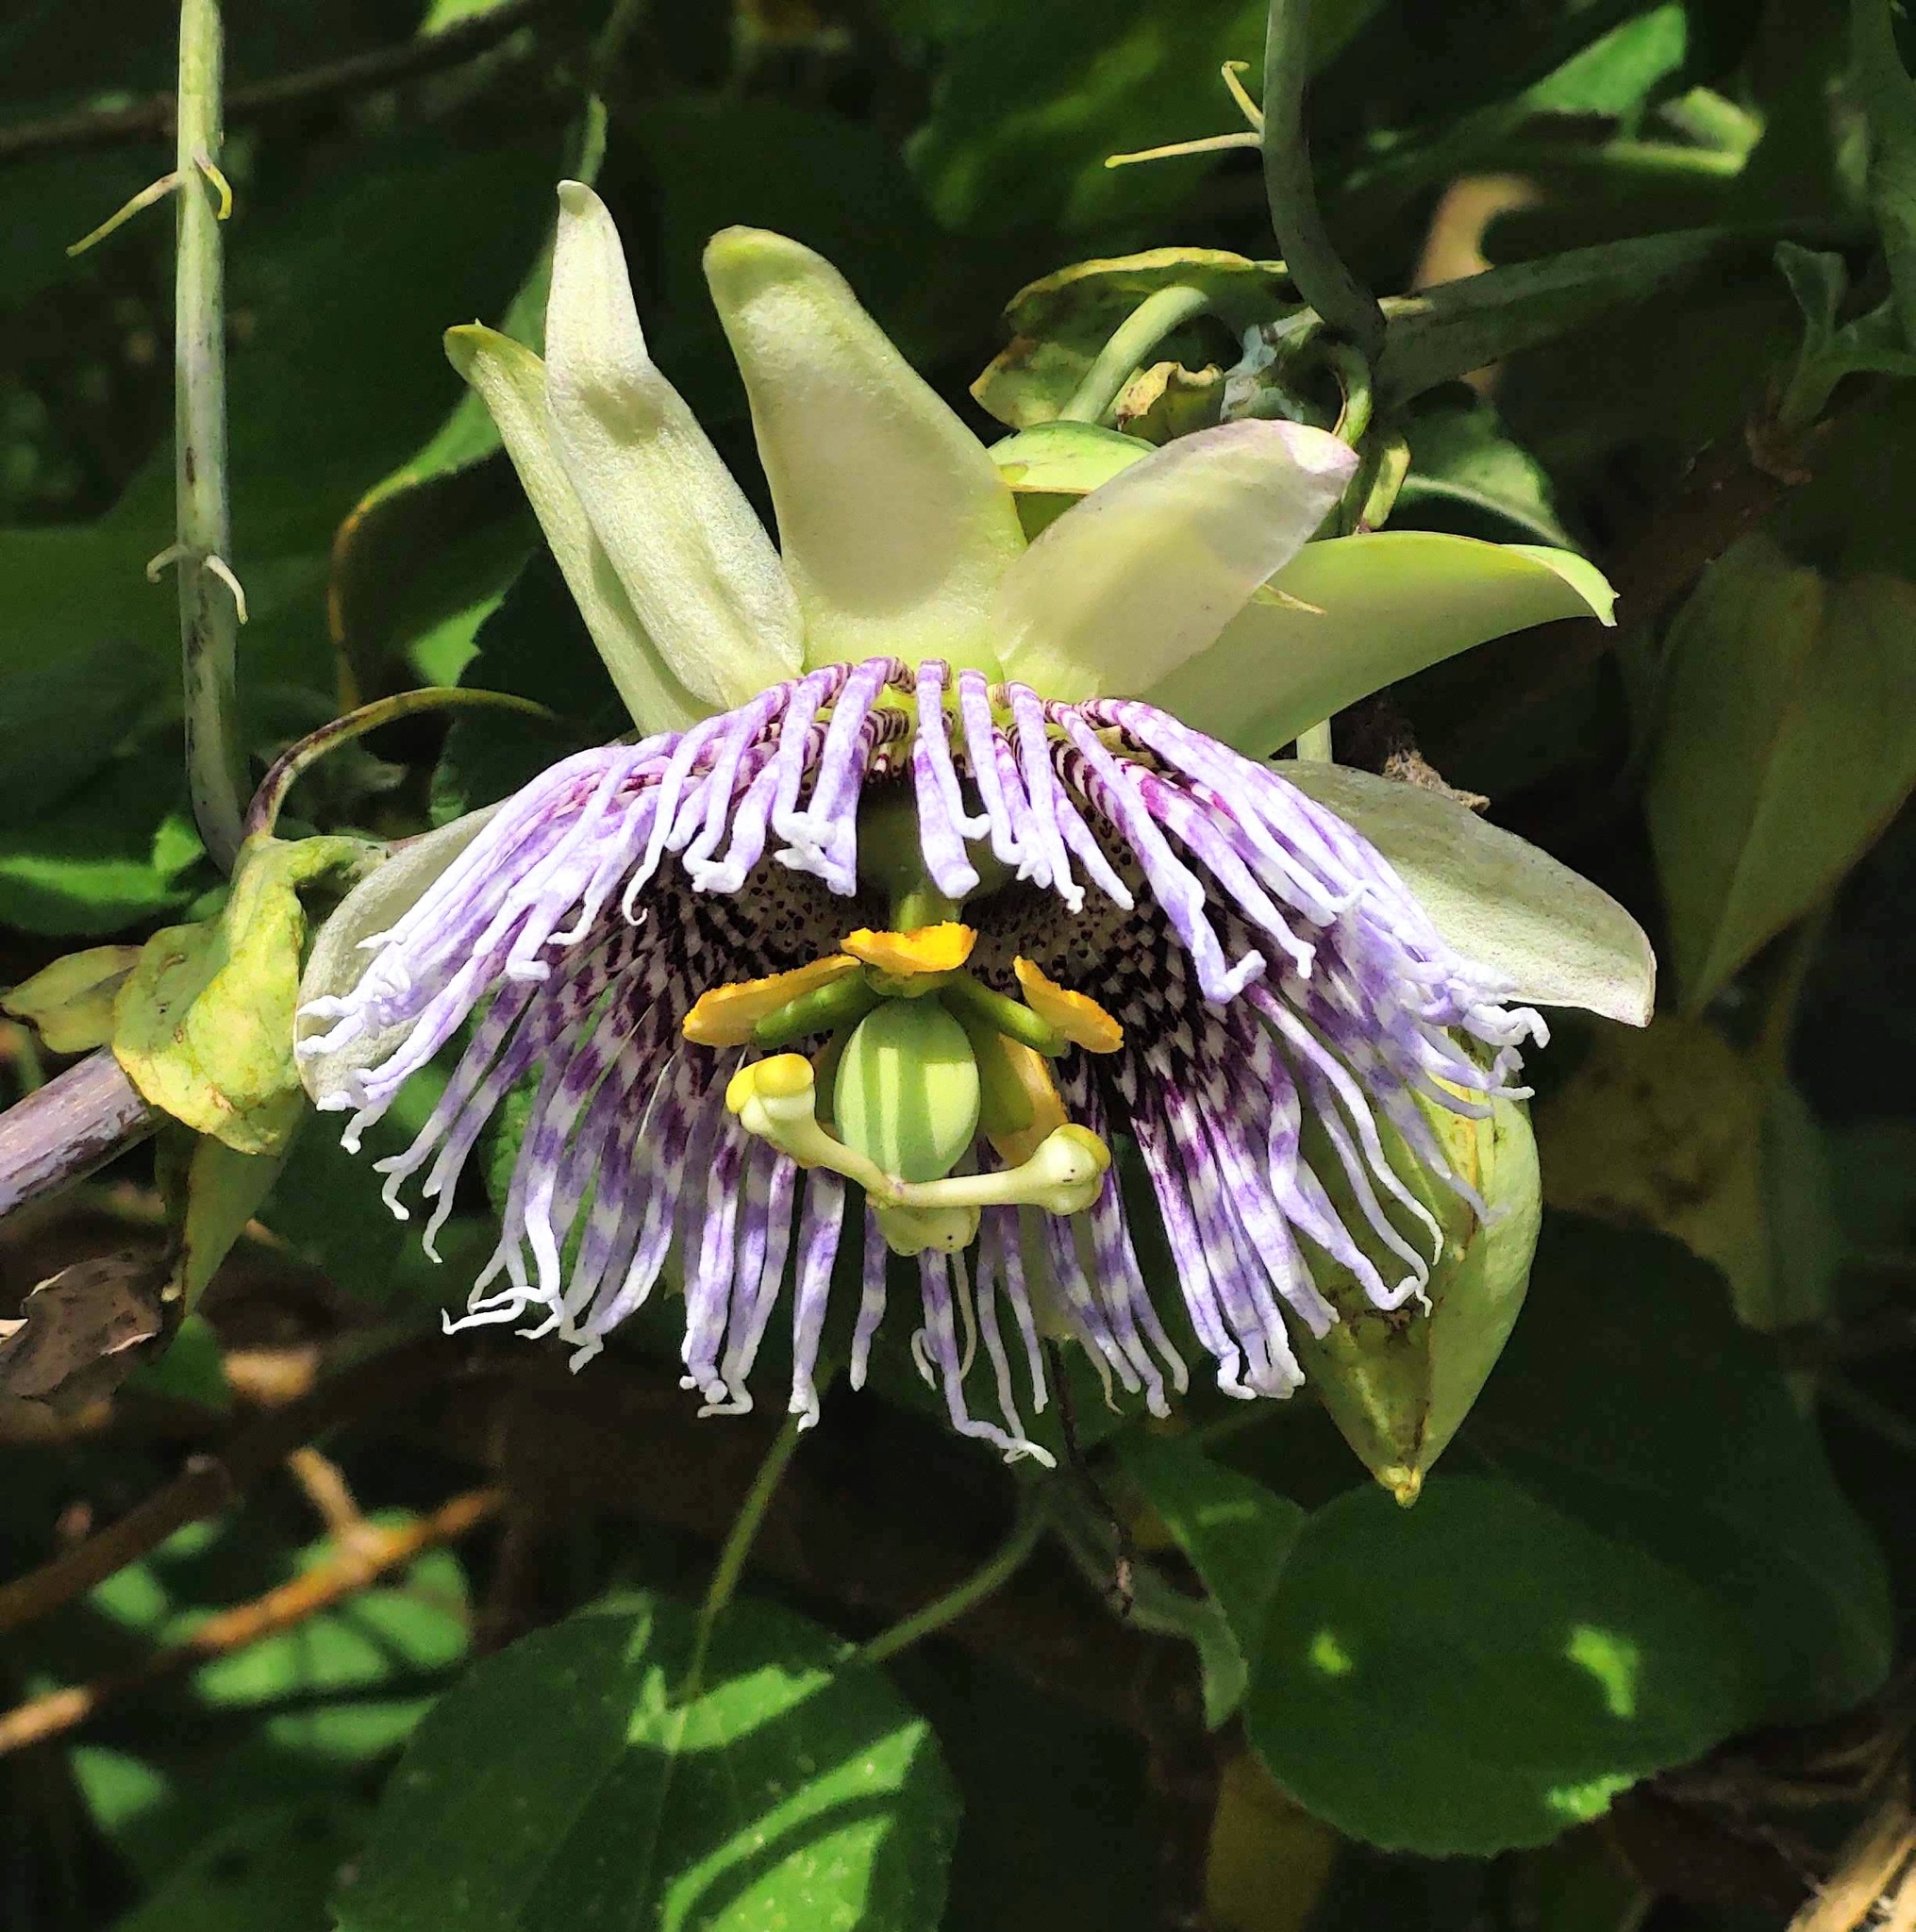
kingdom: Plantae
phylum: Tracheophyta
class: Magnoliopsida
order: Malpighiales
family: Passifloraceae
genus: Passiflora
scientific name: Passiflora ligularis
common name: Sweet granadilla
